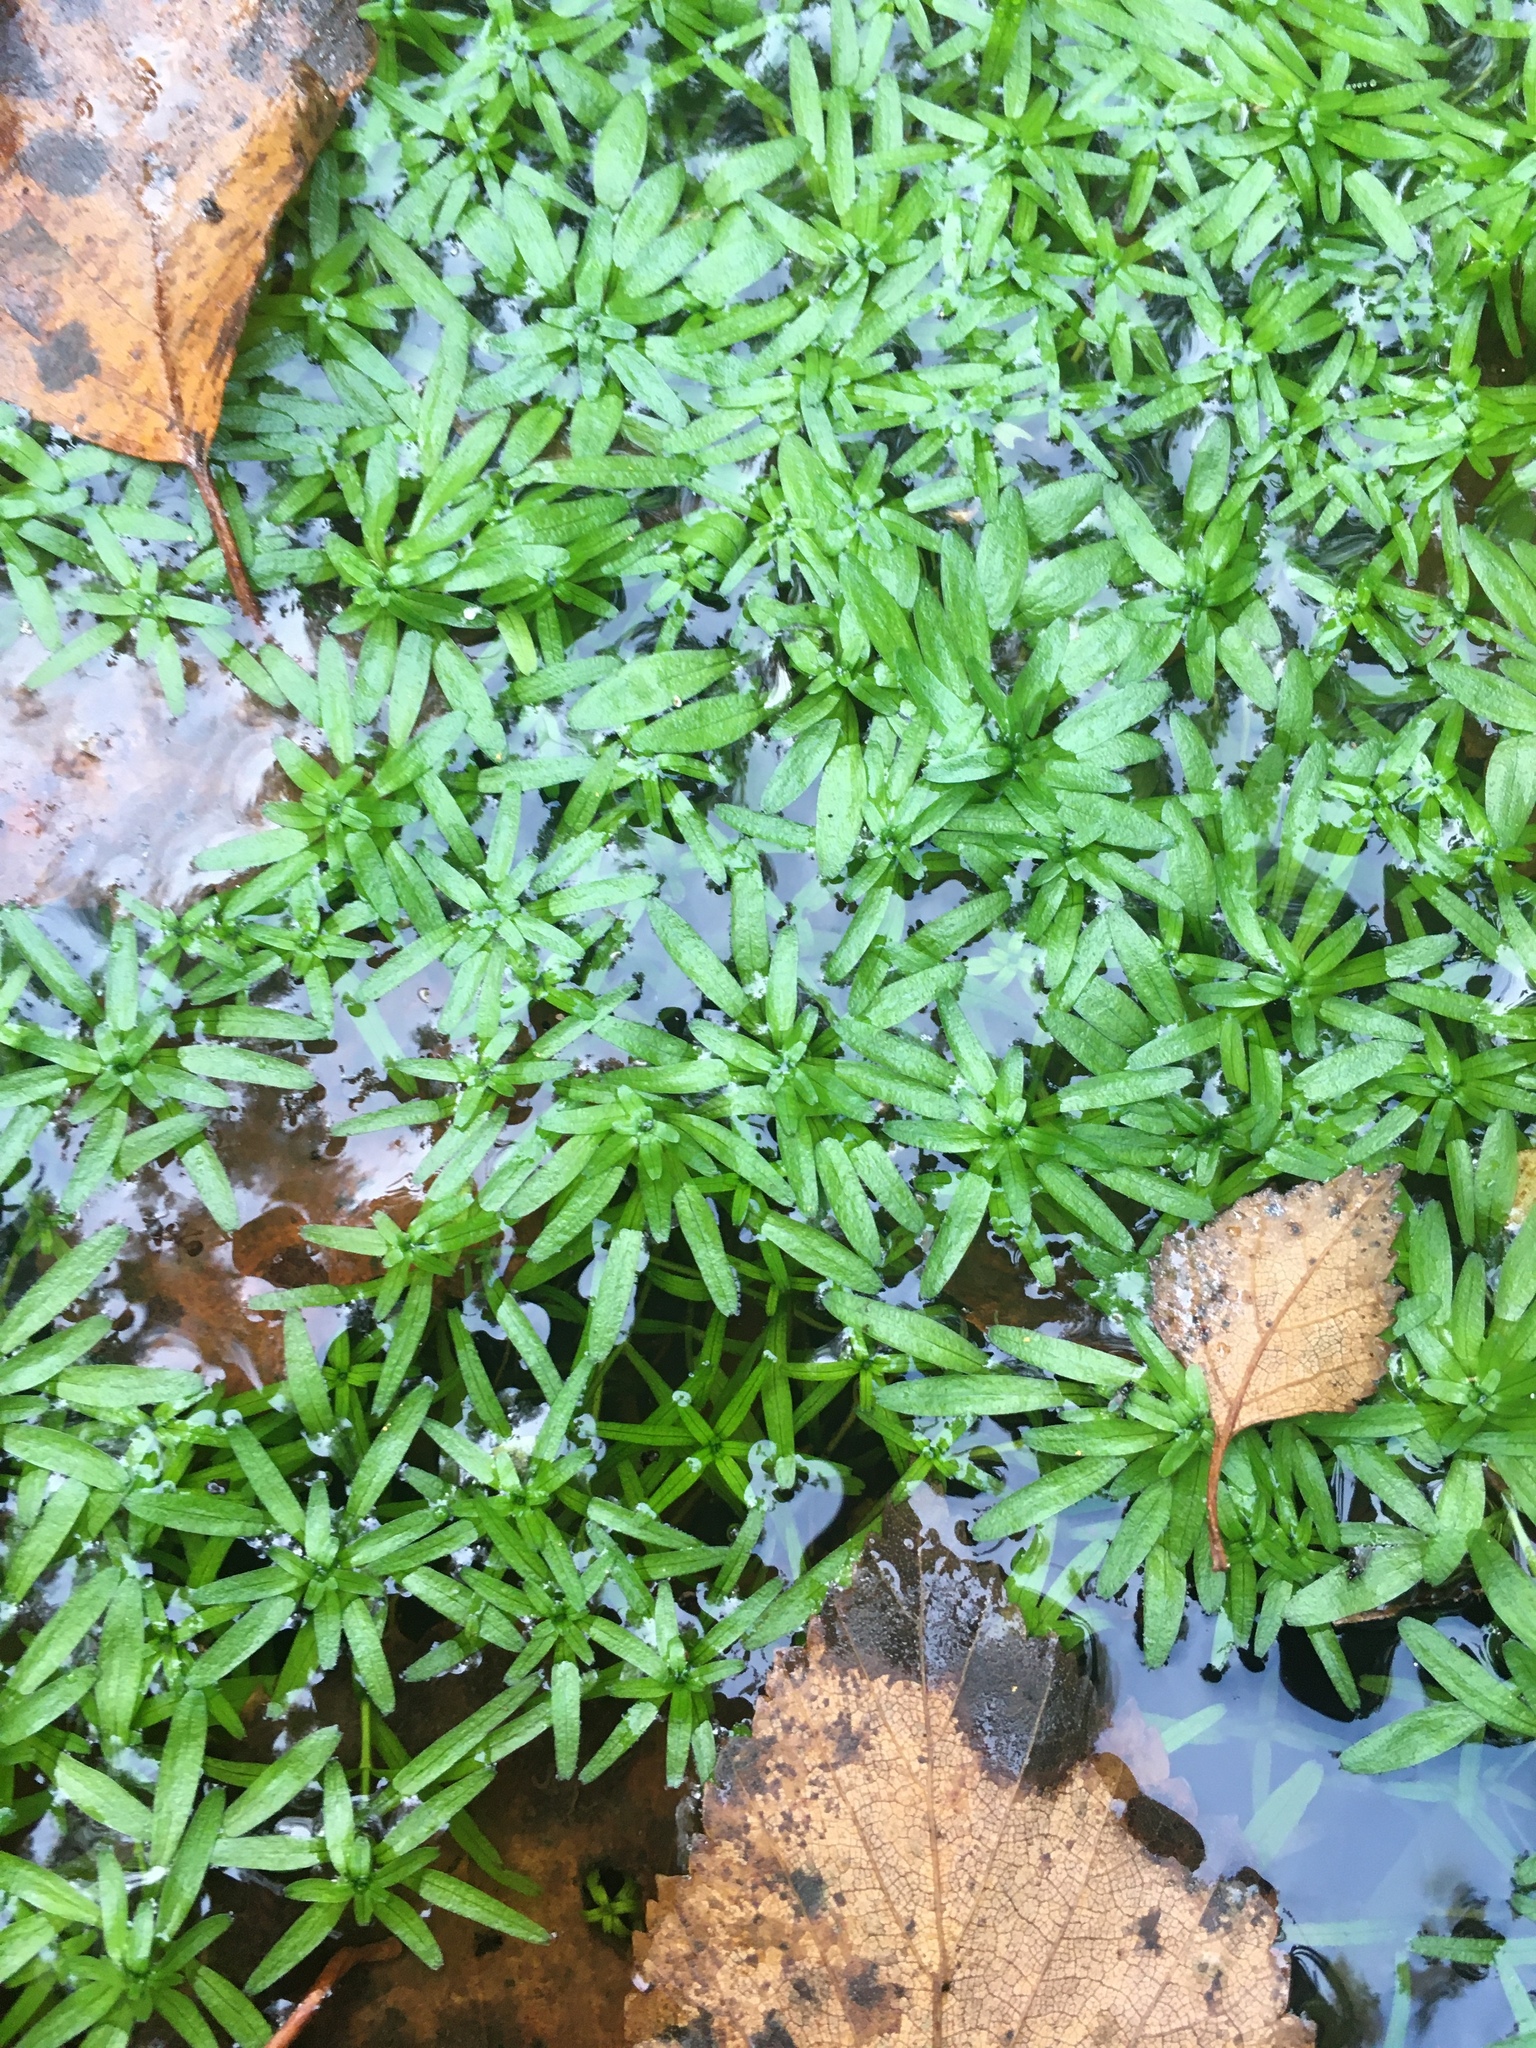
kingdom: Plantae
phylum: Tracheophyta
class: Magnoliopsida
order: Lamiales
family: Plantaginaceae
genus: Callitriche
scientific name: Callitriche
